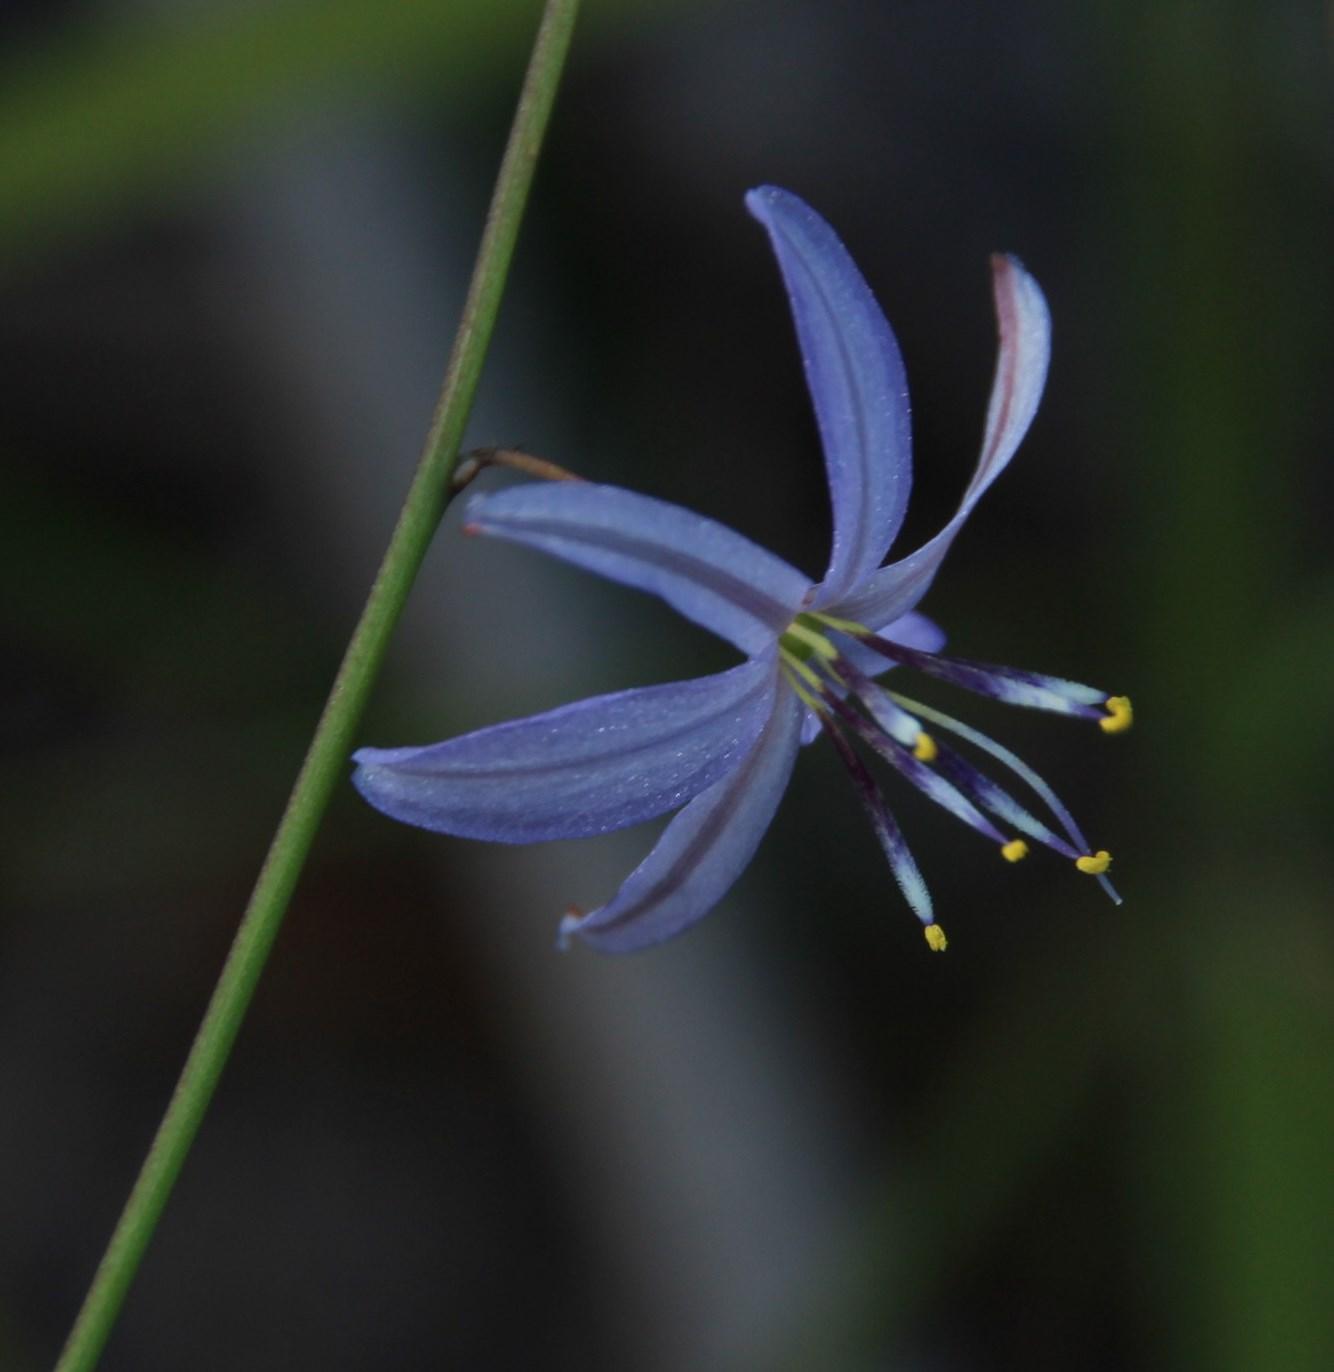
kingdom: Plantae
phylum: Tracheophyta
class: Liliopsida
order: Asparagales
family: Asphodelaceae
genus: Caesia
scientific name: Caesia contorta
